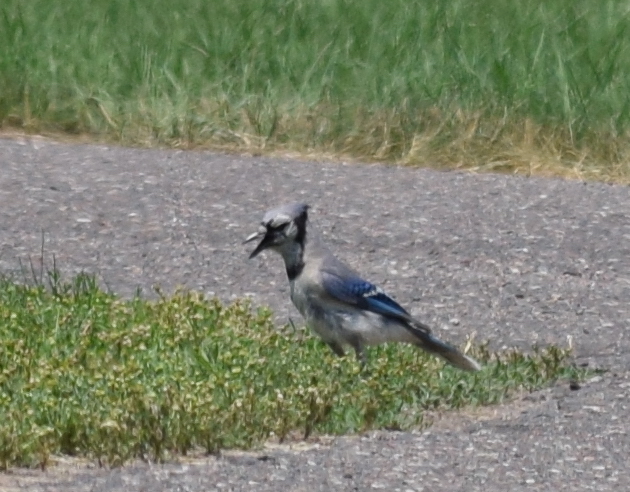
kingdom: Animalia
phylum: Chordata
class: Aves
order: Passeriformes
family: Corvidae
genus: Cyanocitta
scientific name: Cyanocitta cristata
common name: Blue jay
